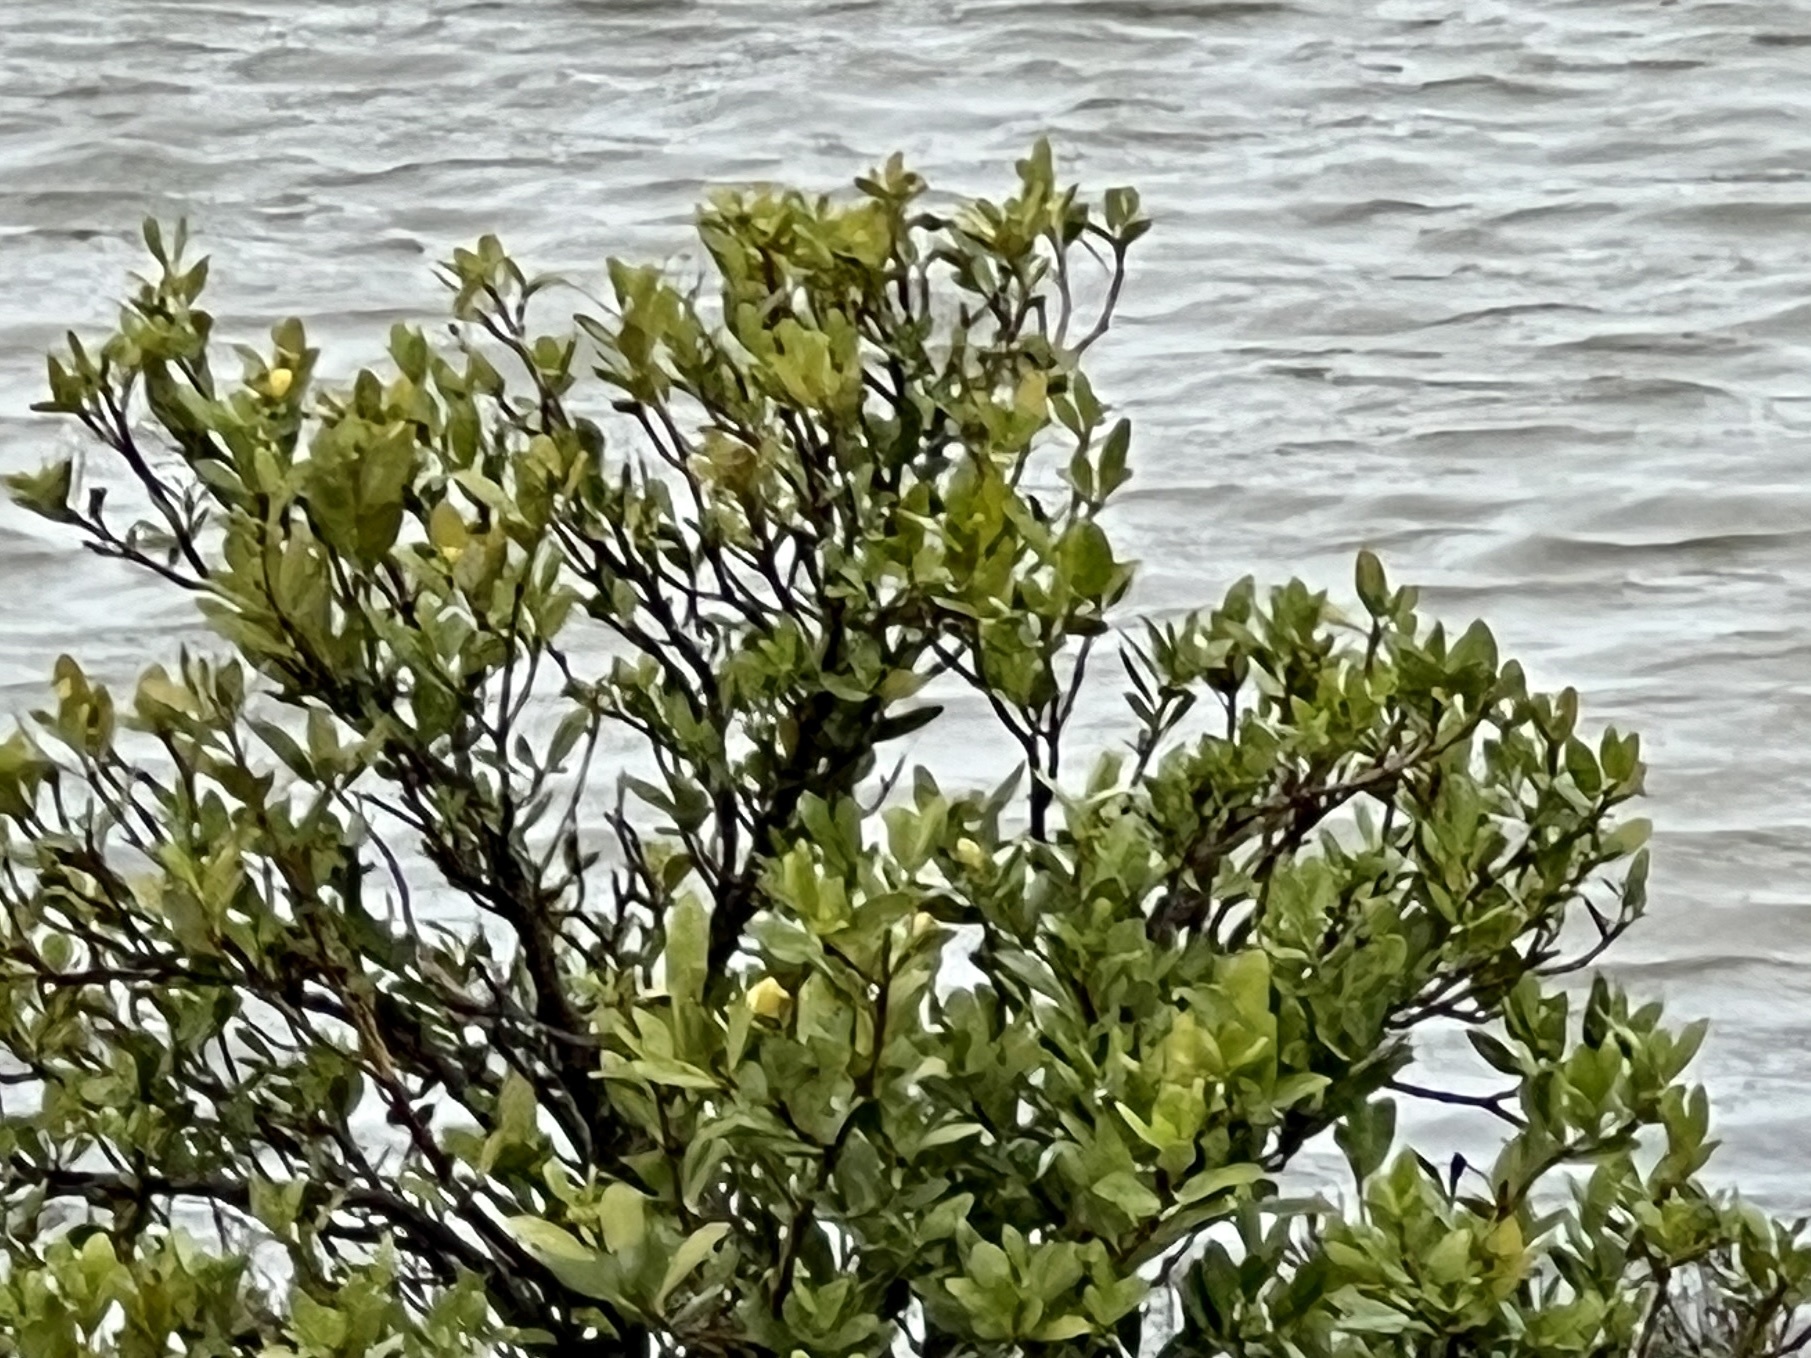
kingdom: Plantae
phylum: Tracheophyta
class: Magnoliopsida
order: Lamiales
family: Acanthaceae
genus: Avicennia
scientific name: Avicennia germinans
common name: Black mangrove
